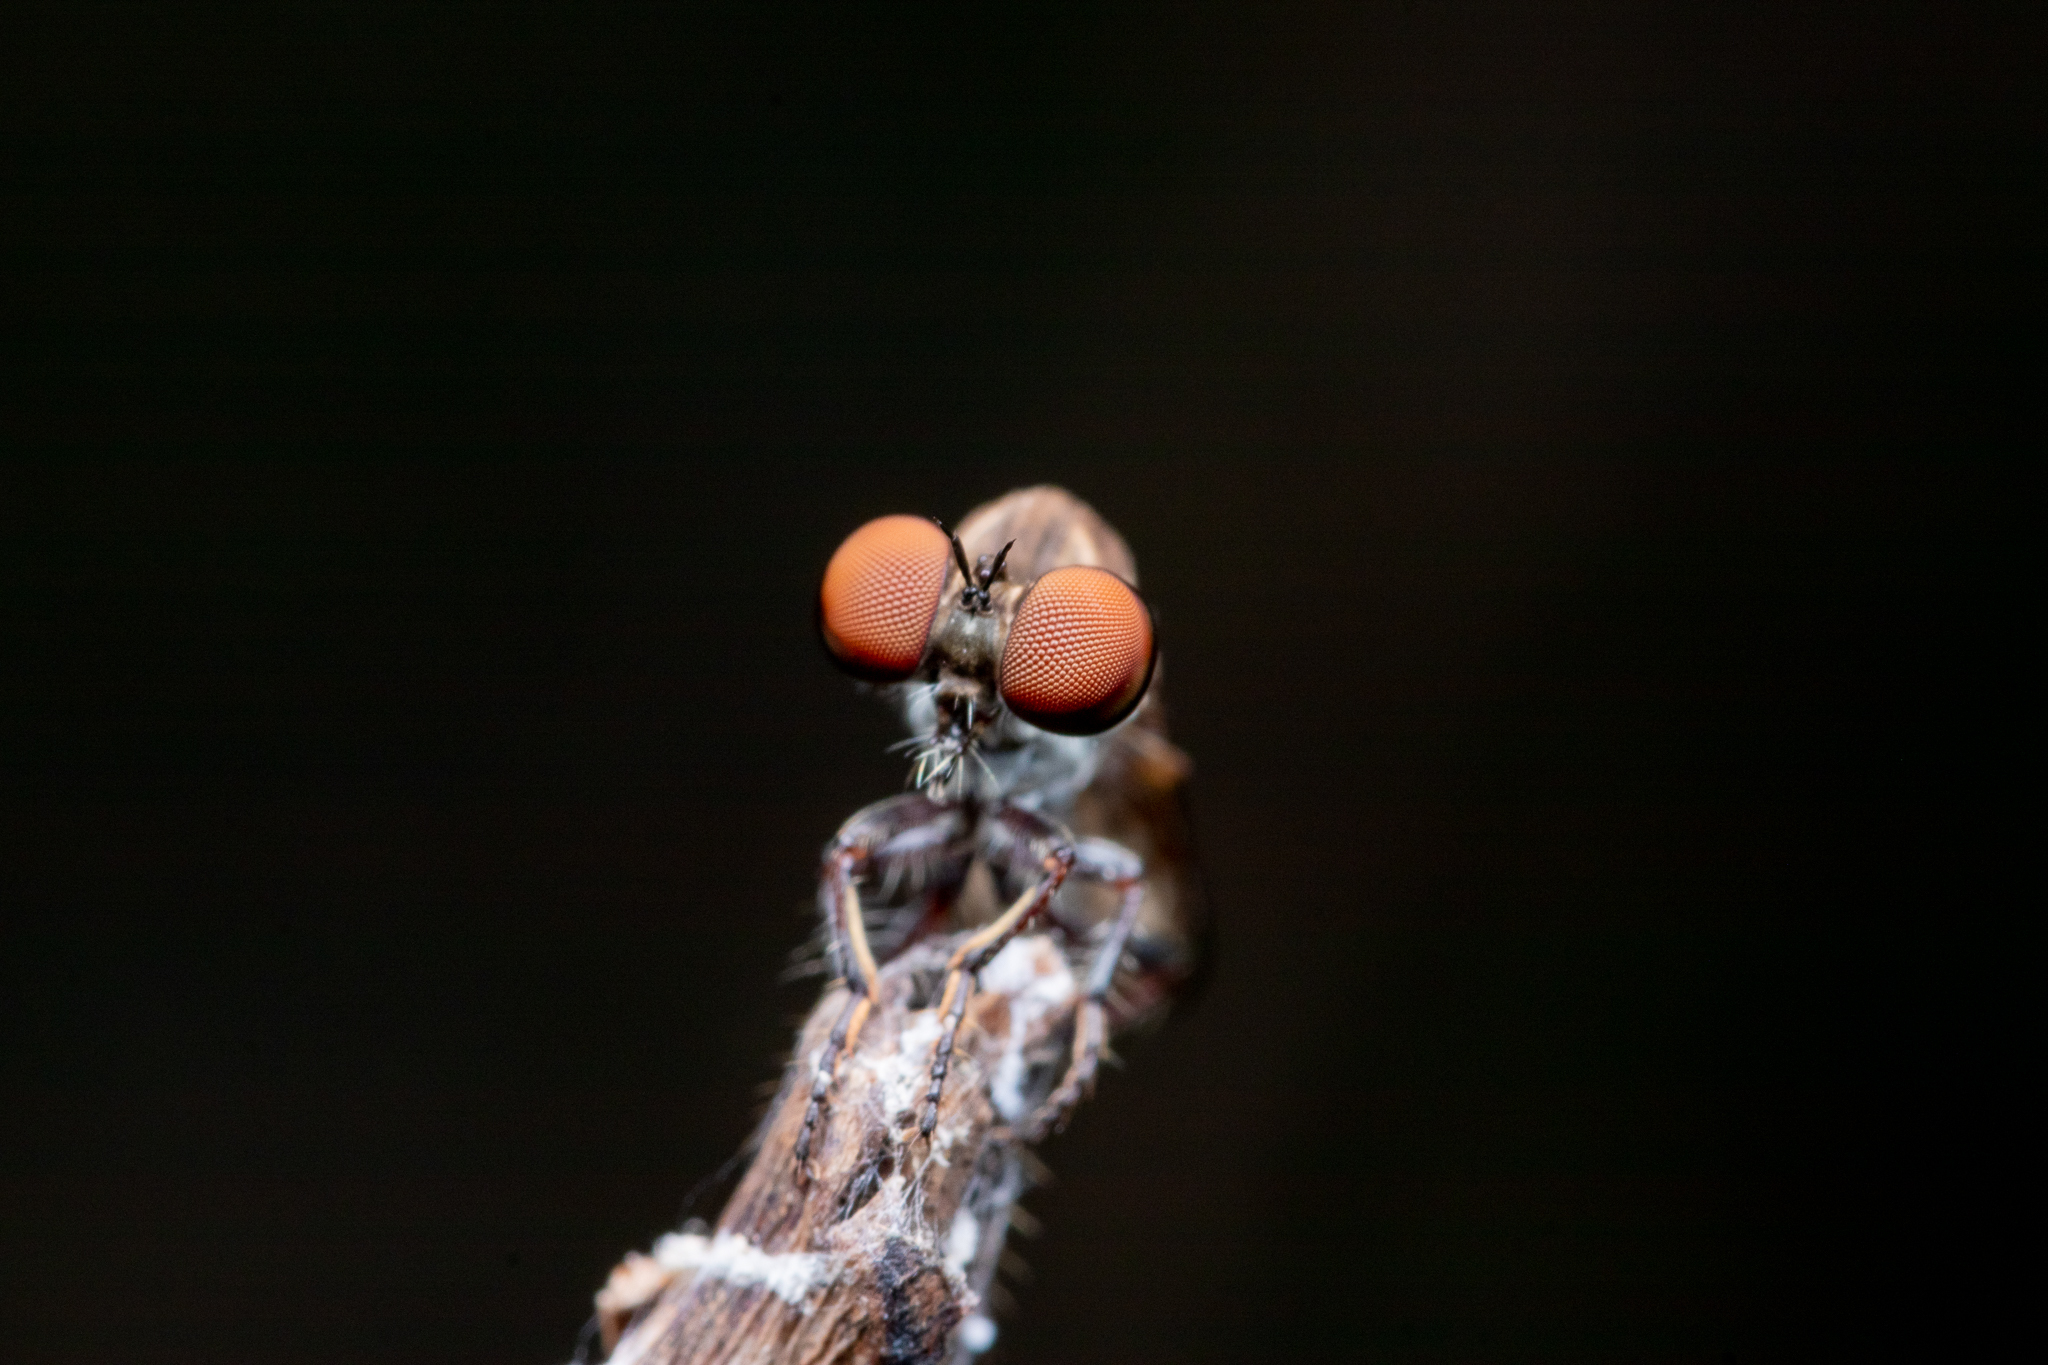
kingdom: Animalia
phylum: Arthropoda
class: Insecta
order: Diptera
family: Asilidae
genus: Holcocephala
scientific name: Holcocephala calva
